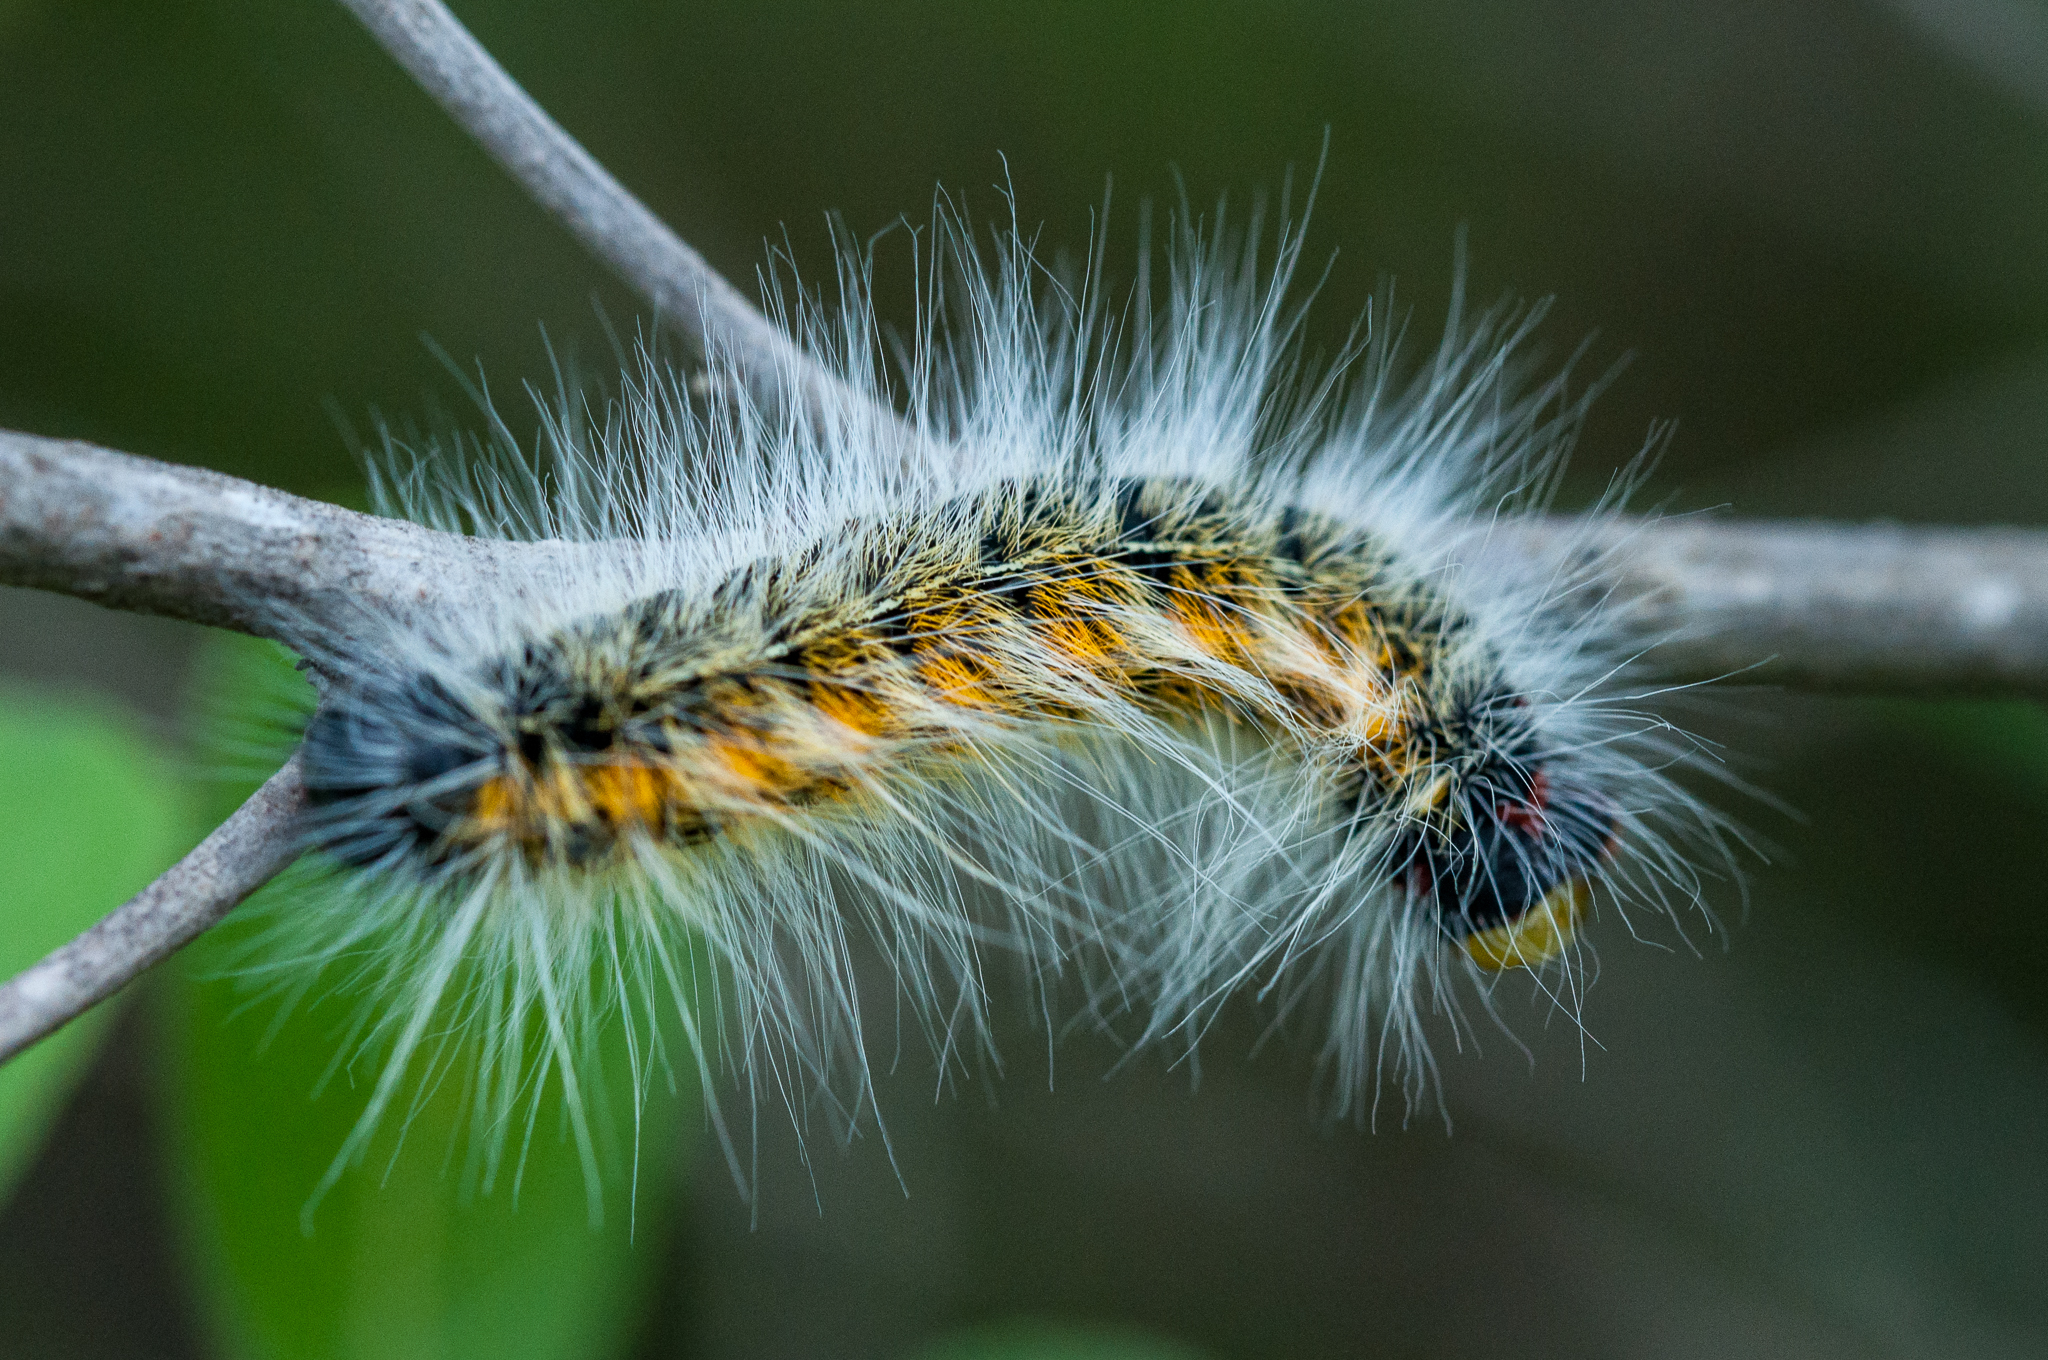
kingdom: Animalia
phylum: Arthropoda
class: Insecta
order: Lepidoptera
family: Lasiocampidae
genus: Bombycomorpha
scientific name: Bombycomorpha bifascia
